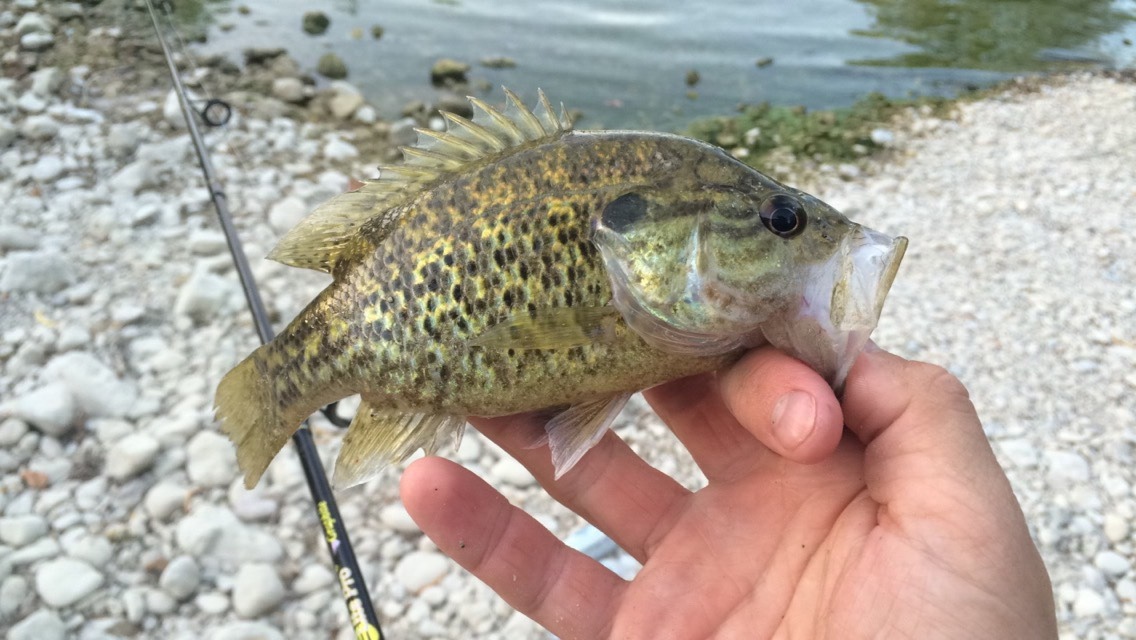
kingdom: Animalia
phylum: Chordata
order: Perciformes
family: Centrarchidae
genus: Lepomis
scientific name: Lepomis gulosus
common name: Warmouth
